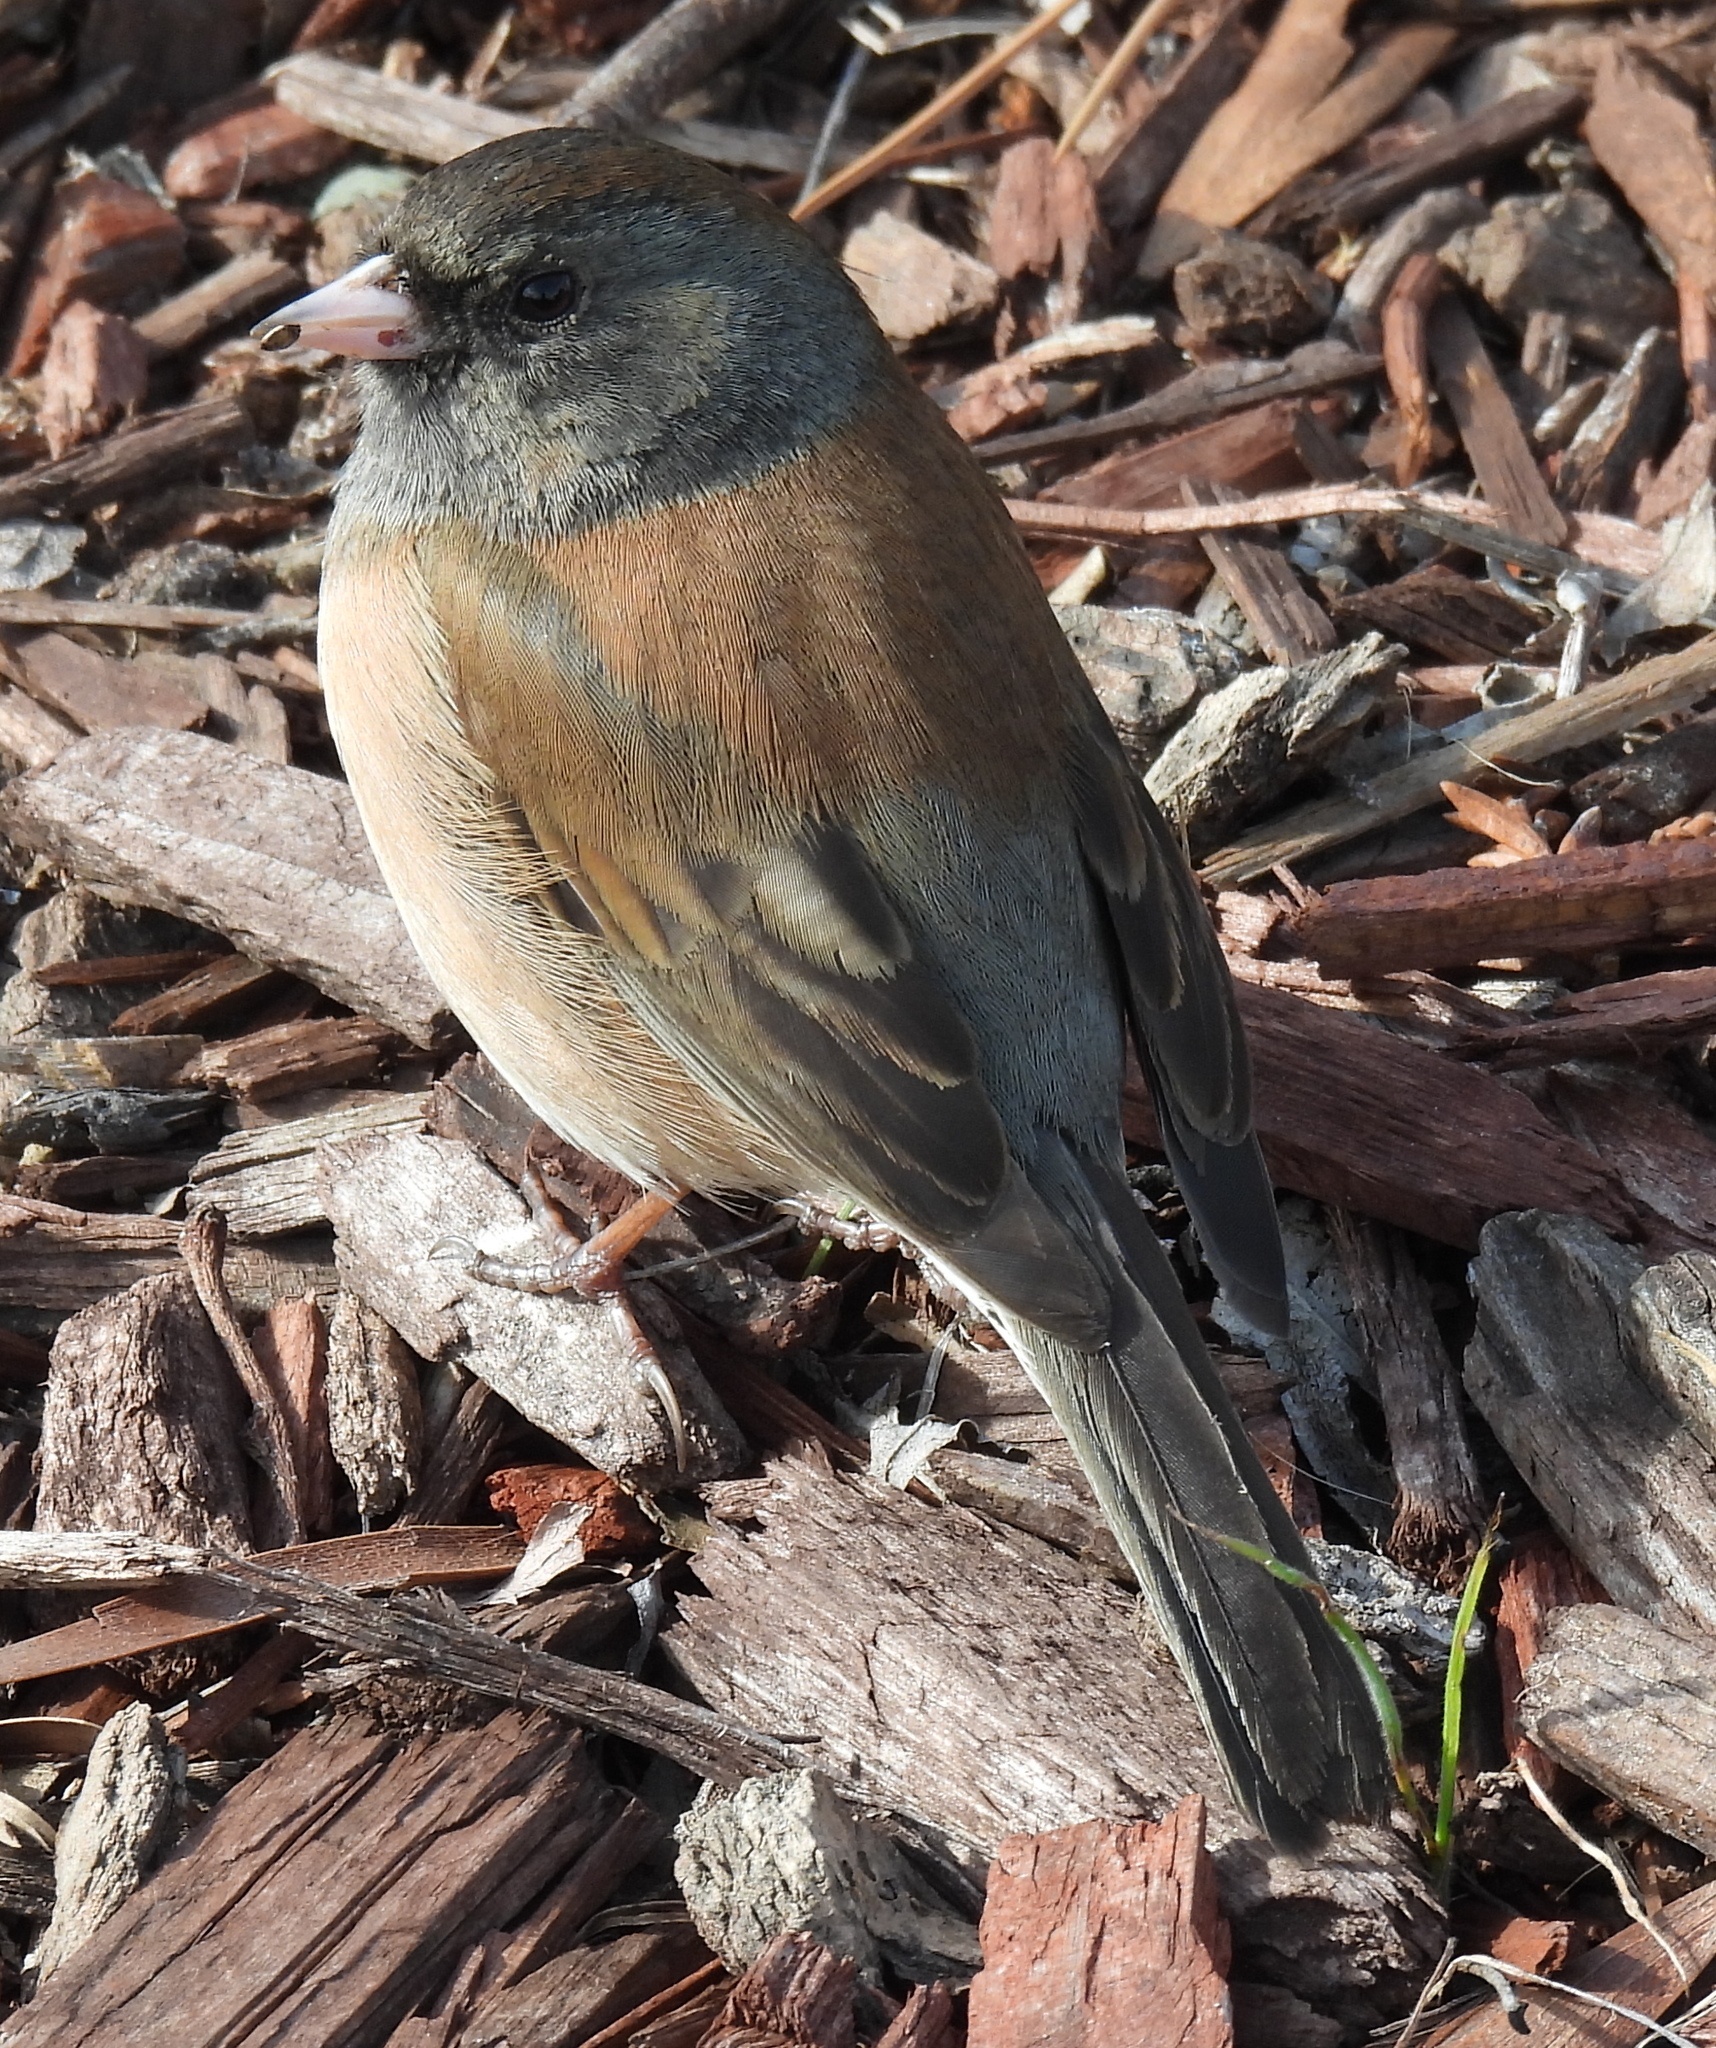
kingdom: Animalia
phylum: Chordata
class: Aves
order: Passeriformes
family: Passerellidae
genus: Junco
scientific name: Junco hyemalis
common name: Dark-eyed junco
